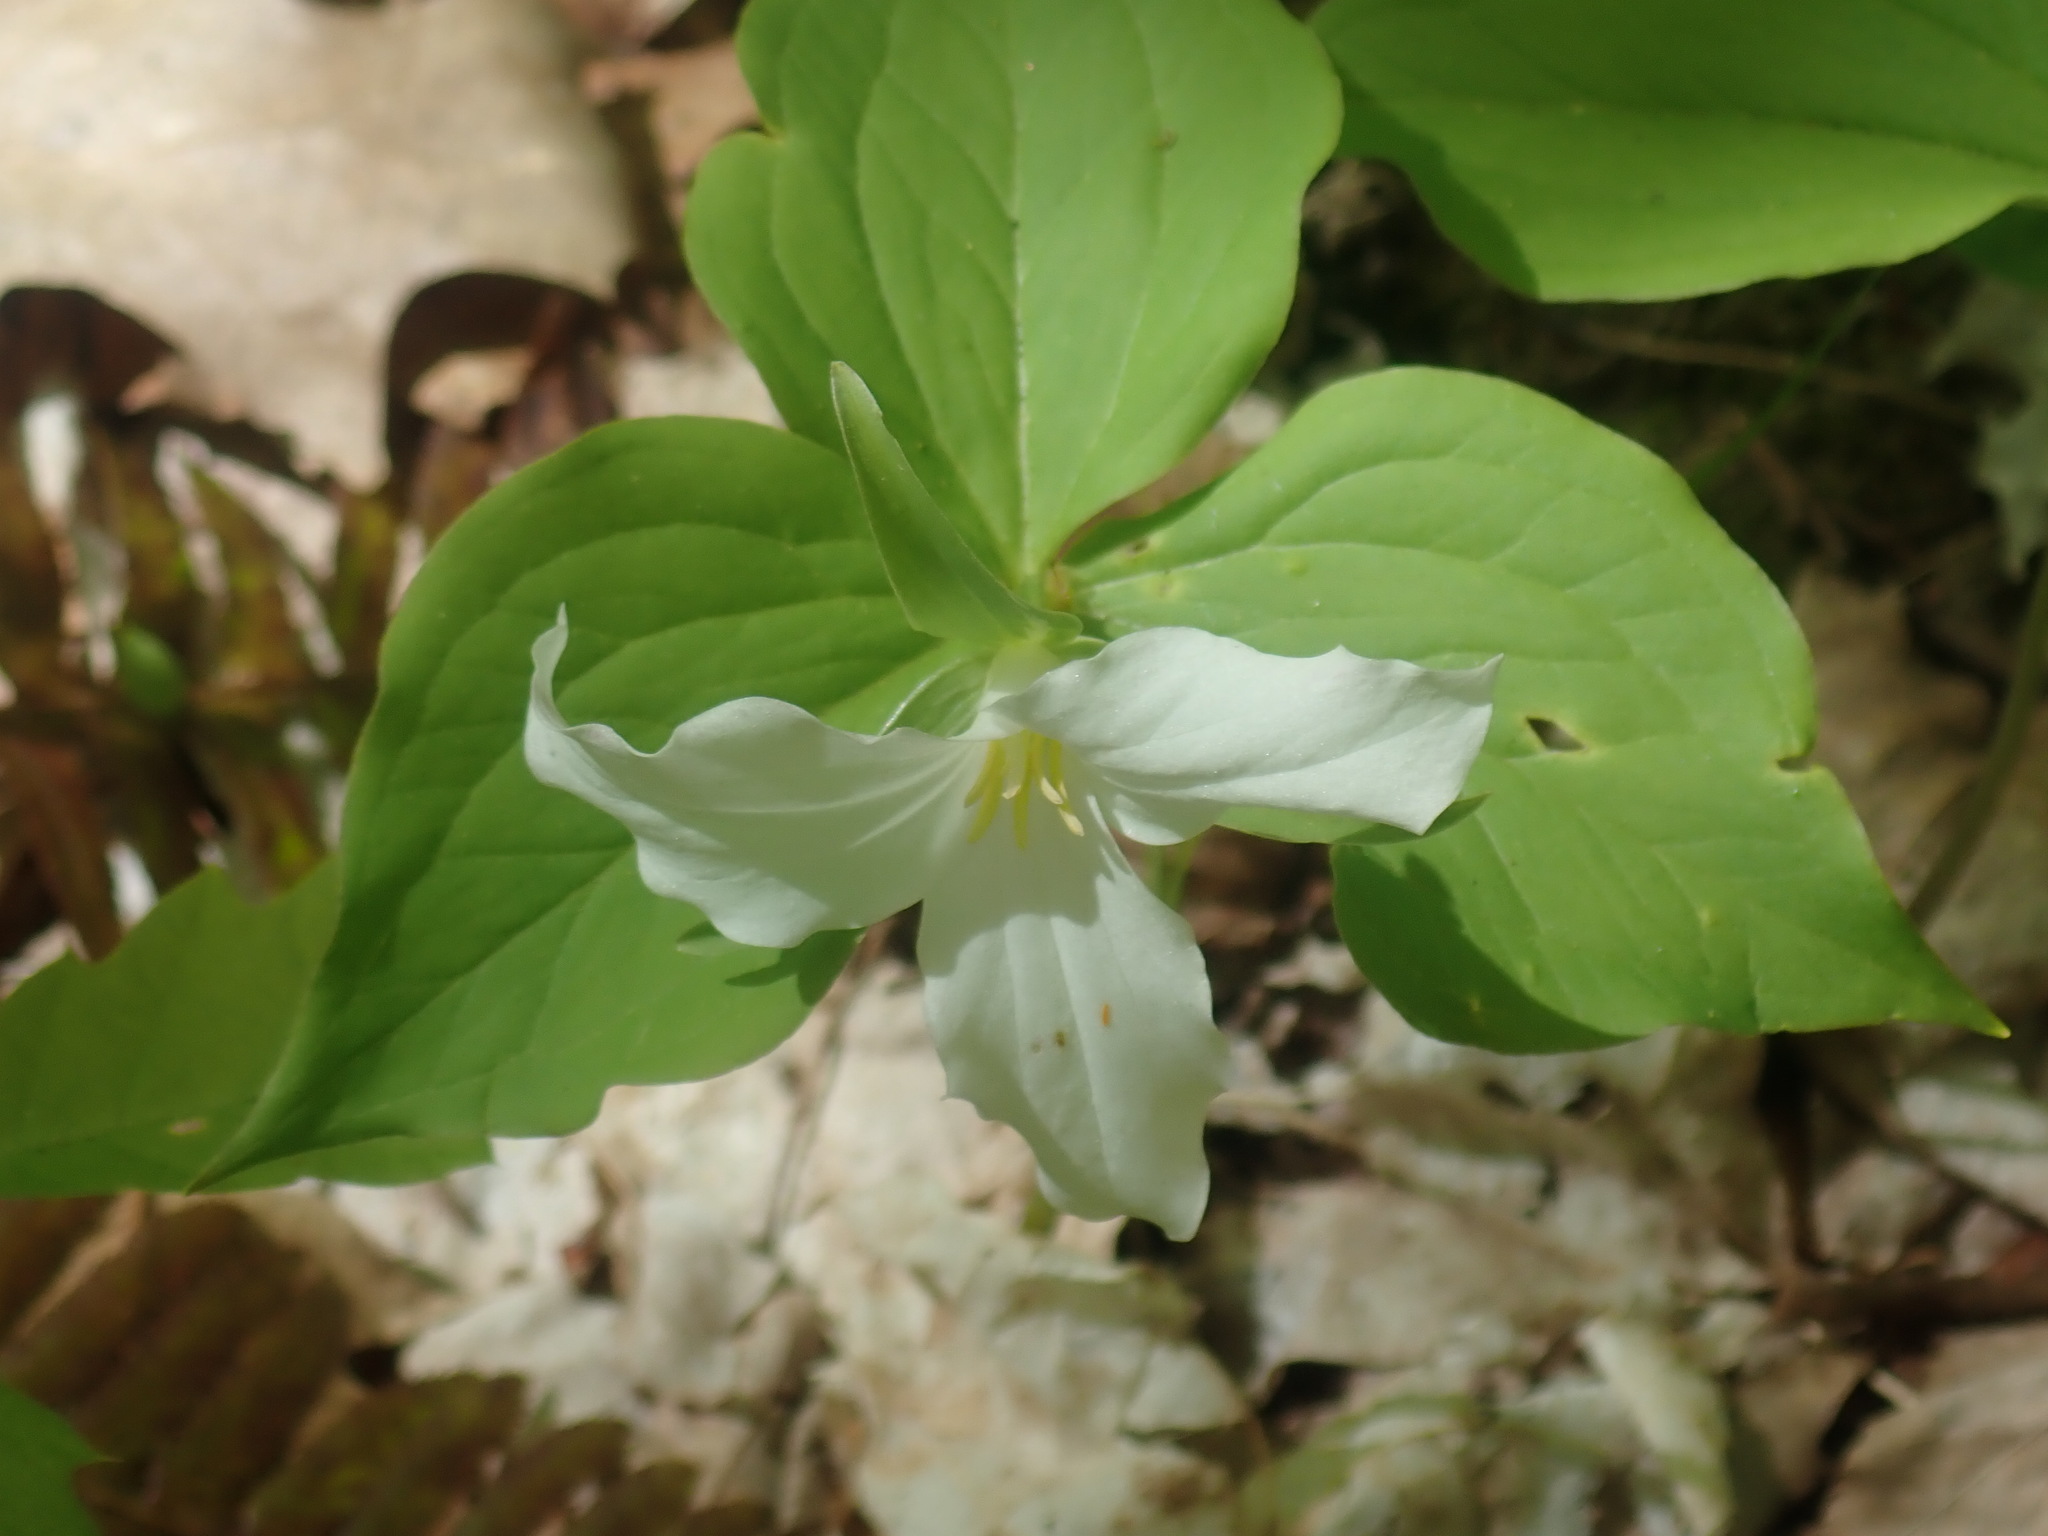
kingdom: Plantae
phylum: Tracheophyta
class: Liliopsida
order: Liliales
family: Melanthiaceae
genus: Trillium
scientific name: Trillium grandiflorum
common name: Great white trillium
